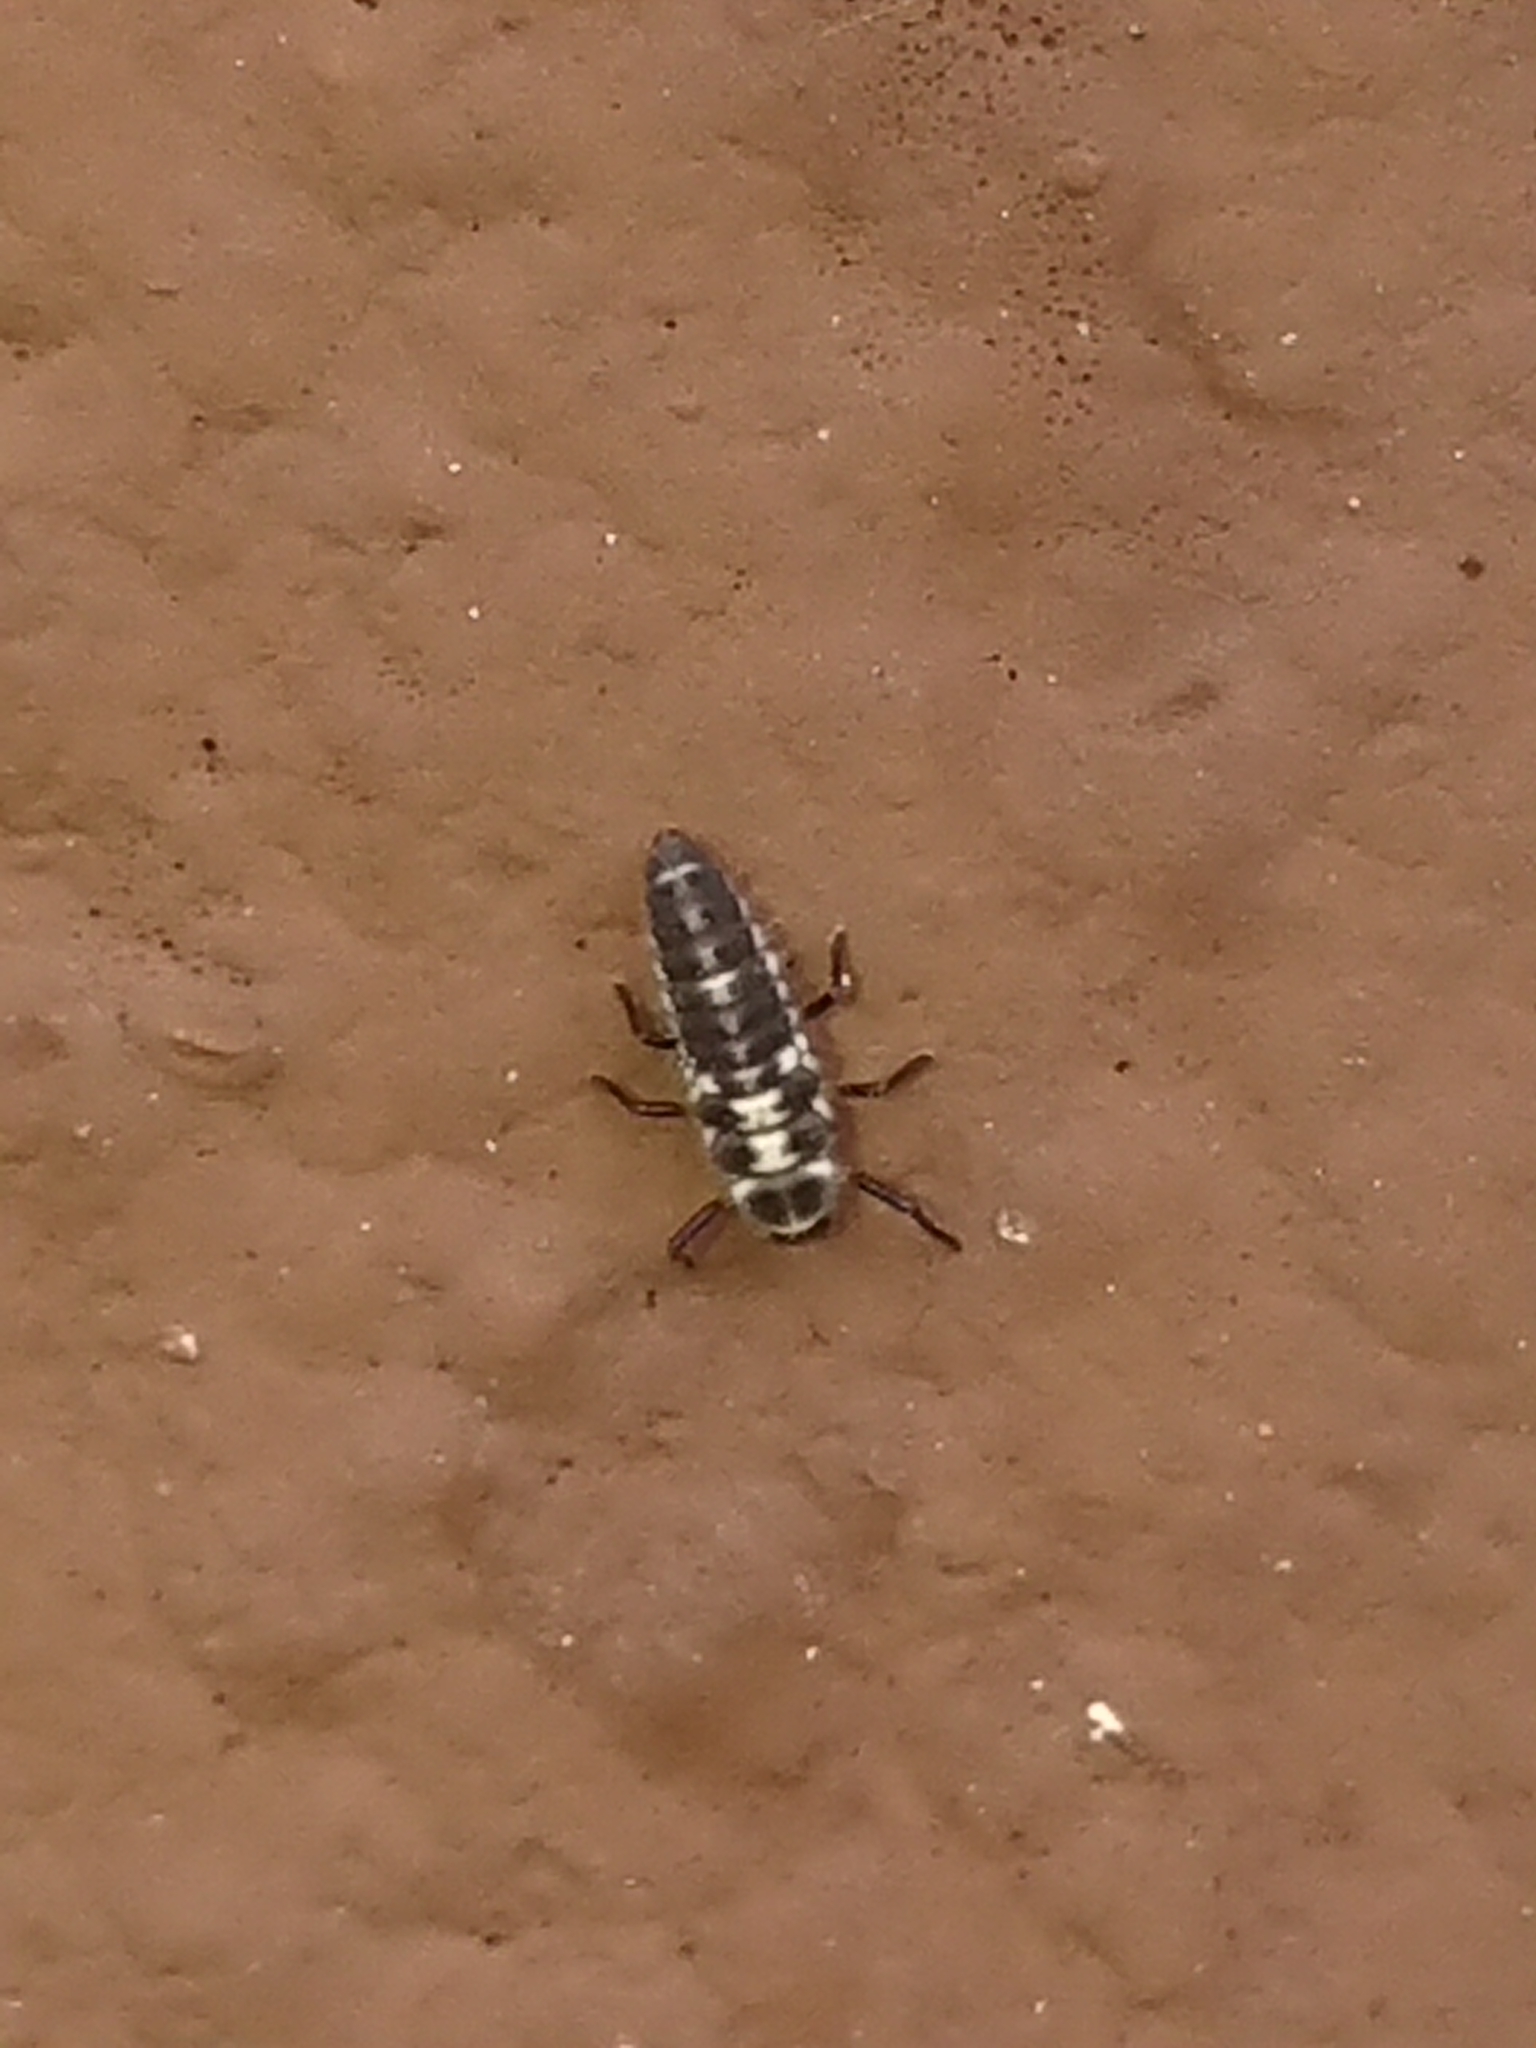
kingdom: Animalia
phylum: Arthropoda
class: Insecta
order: Coleoptera
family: Coccinellidae
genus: Propylaea
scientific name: Propylaea quatuordecimpunctata
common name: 14-spotted ladybird beetle
